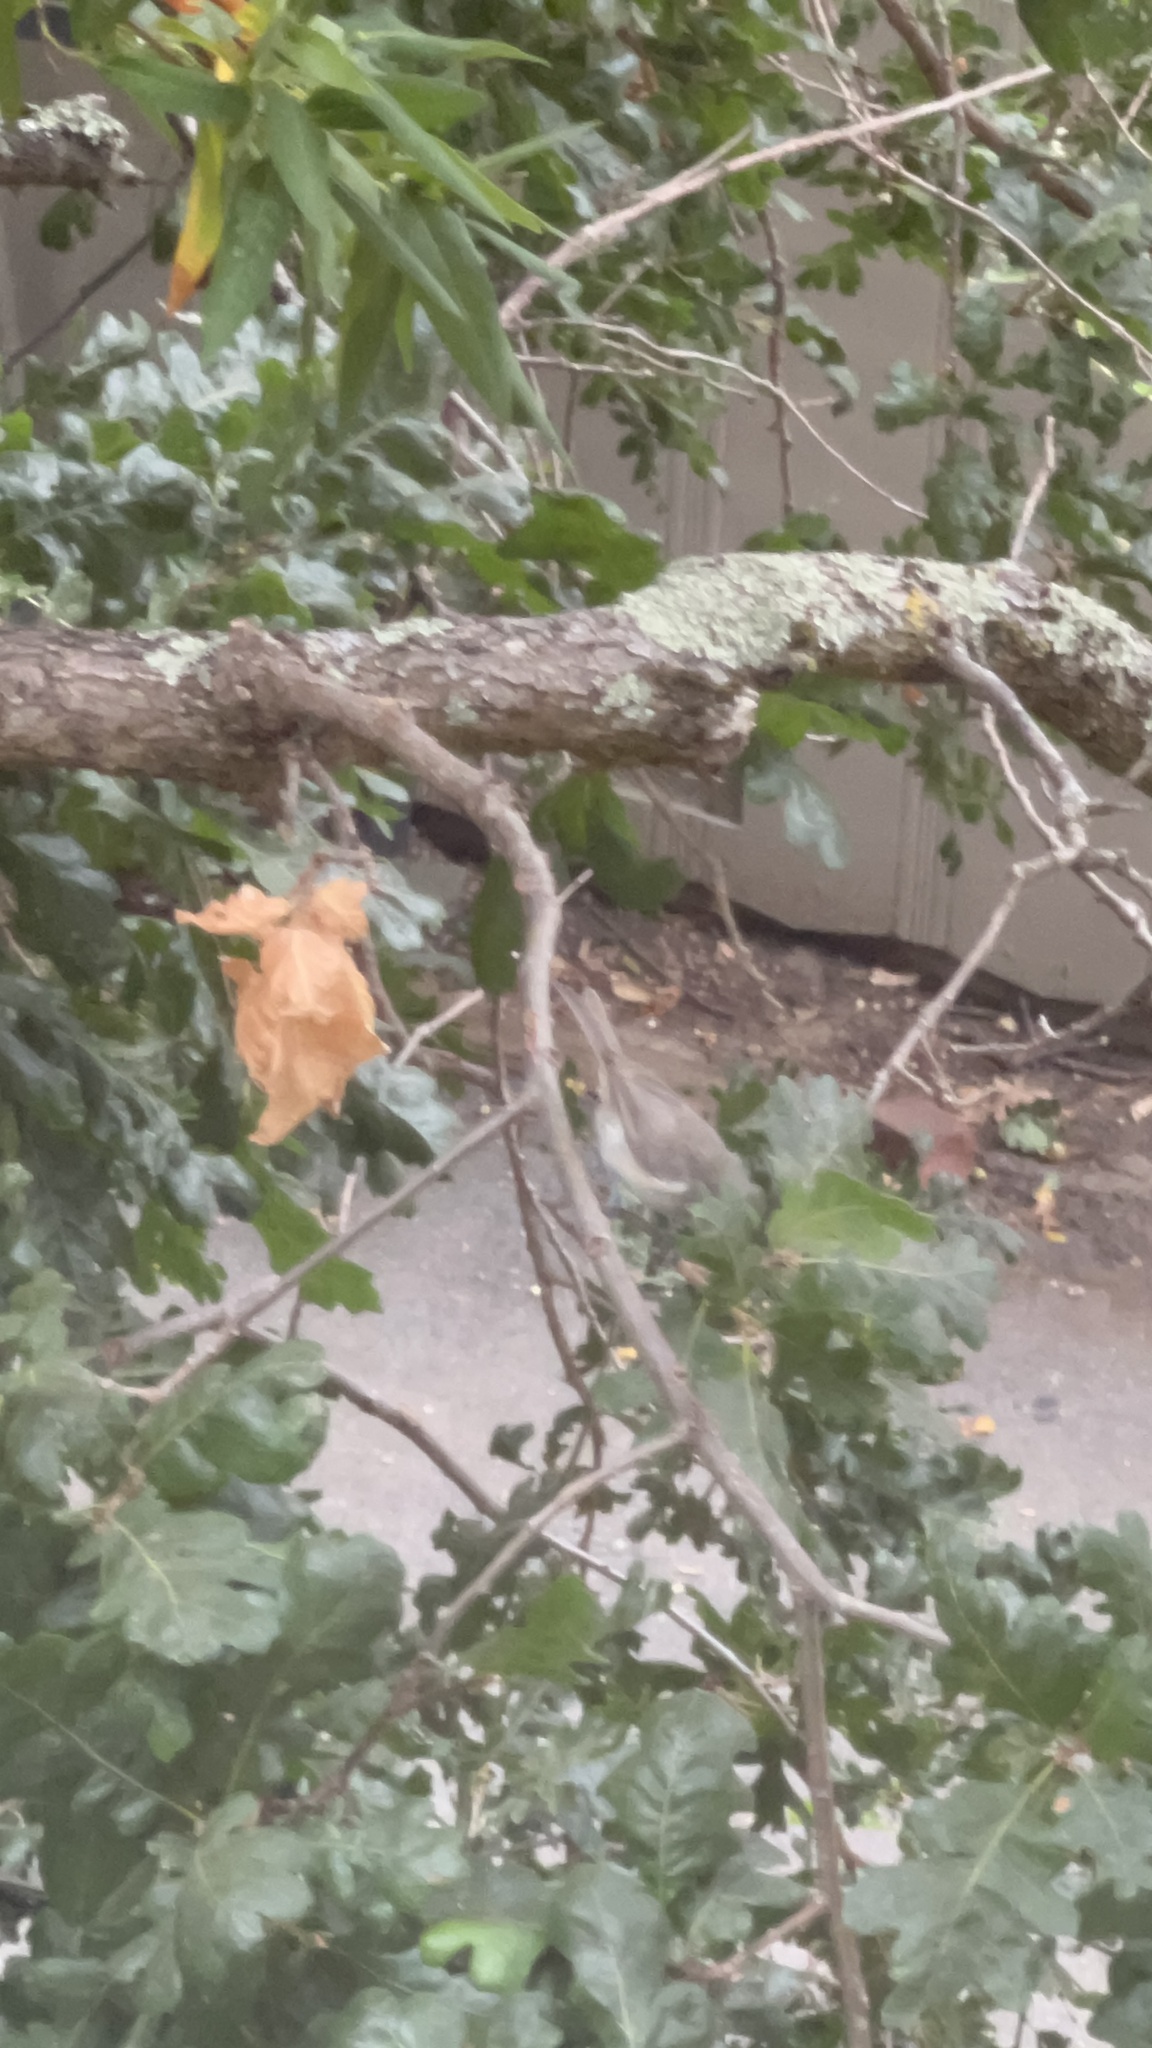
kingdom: Animalia
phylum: Chordata
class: Aves
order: Passeriformes
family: Paridae
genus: Baeolophus
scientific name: Baeolophus inornatus
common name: Oak titmouse
